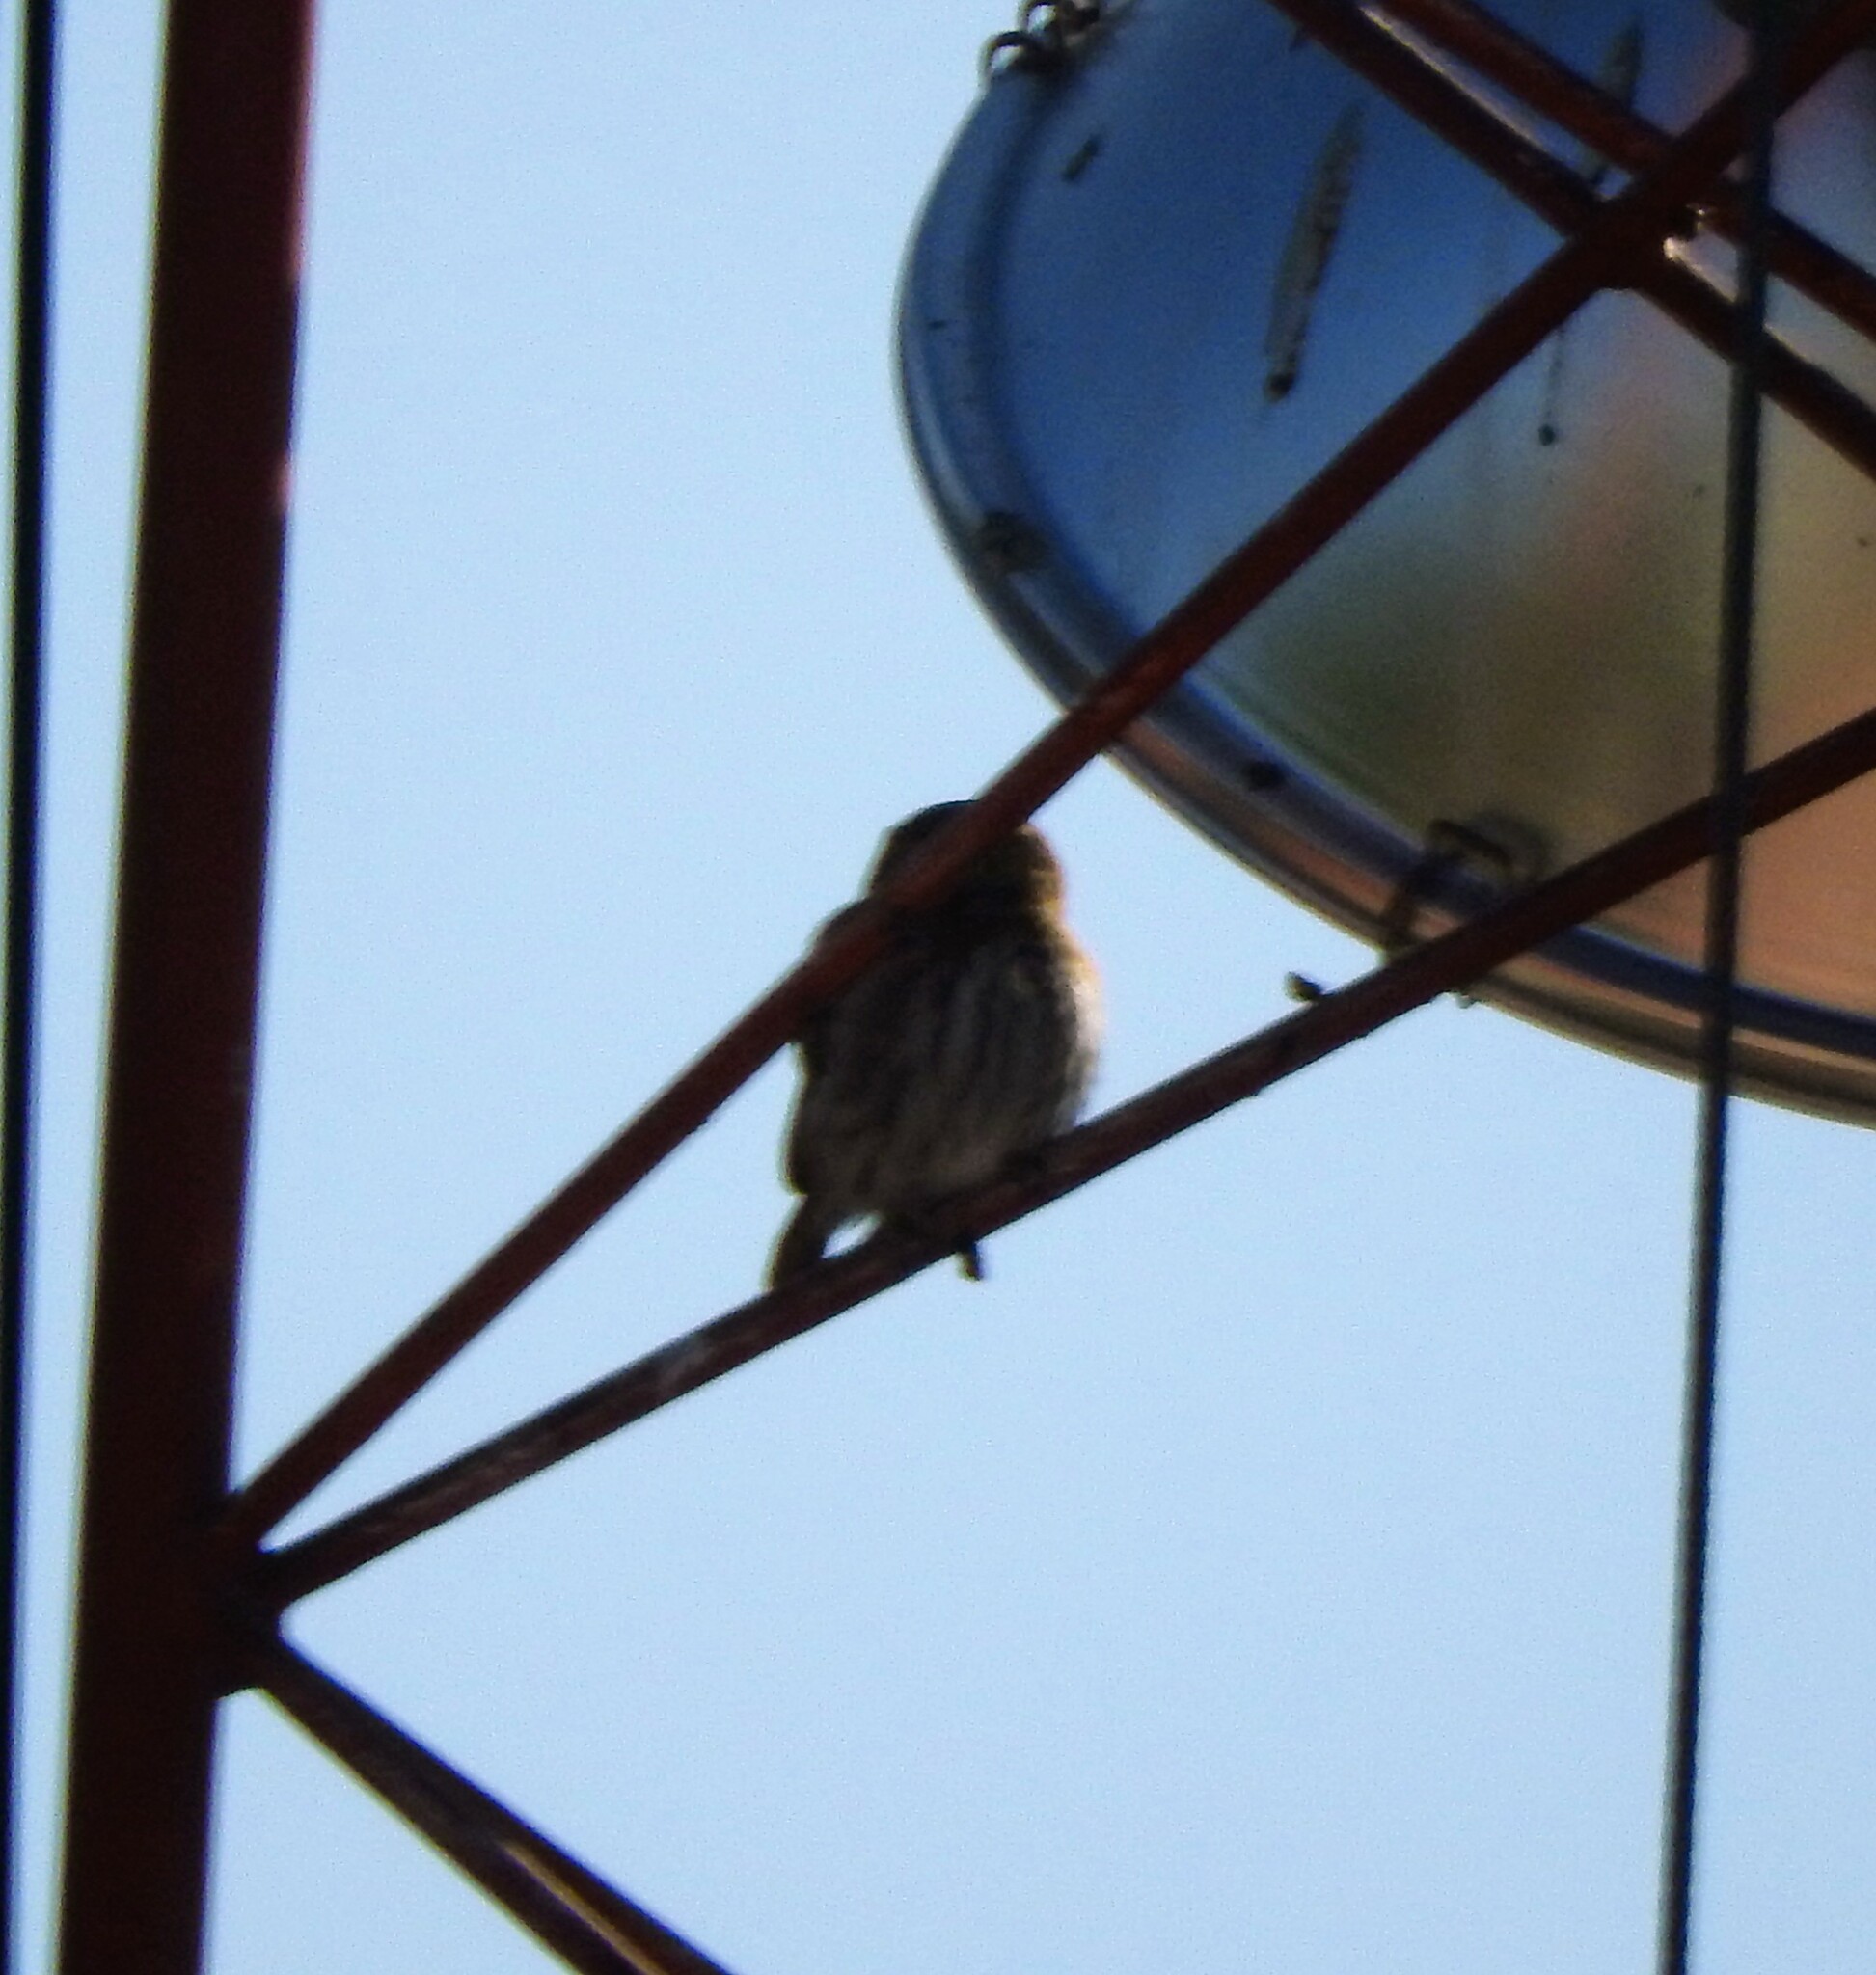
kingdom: Animalia
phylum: Chordata
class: Aves
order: Strigiformes
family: Strigidae
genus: Glaucidium
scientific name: Glaucidium brasilianum
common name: Ferruginous pygmy-owl
